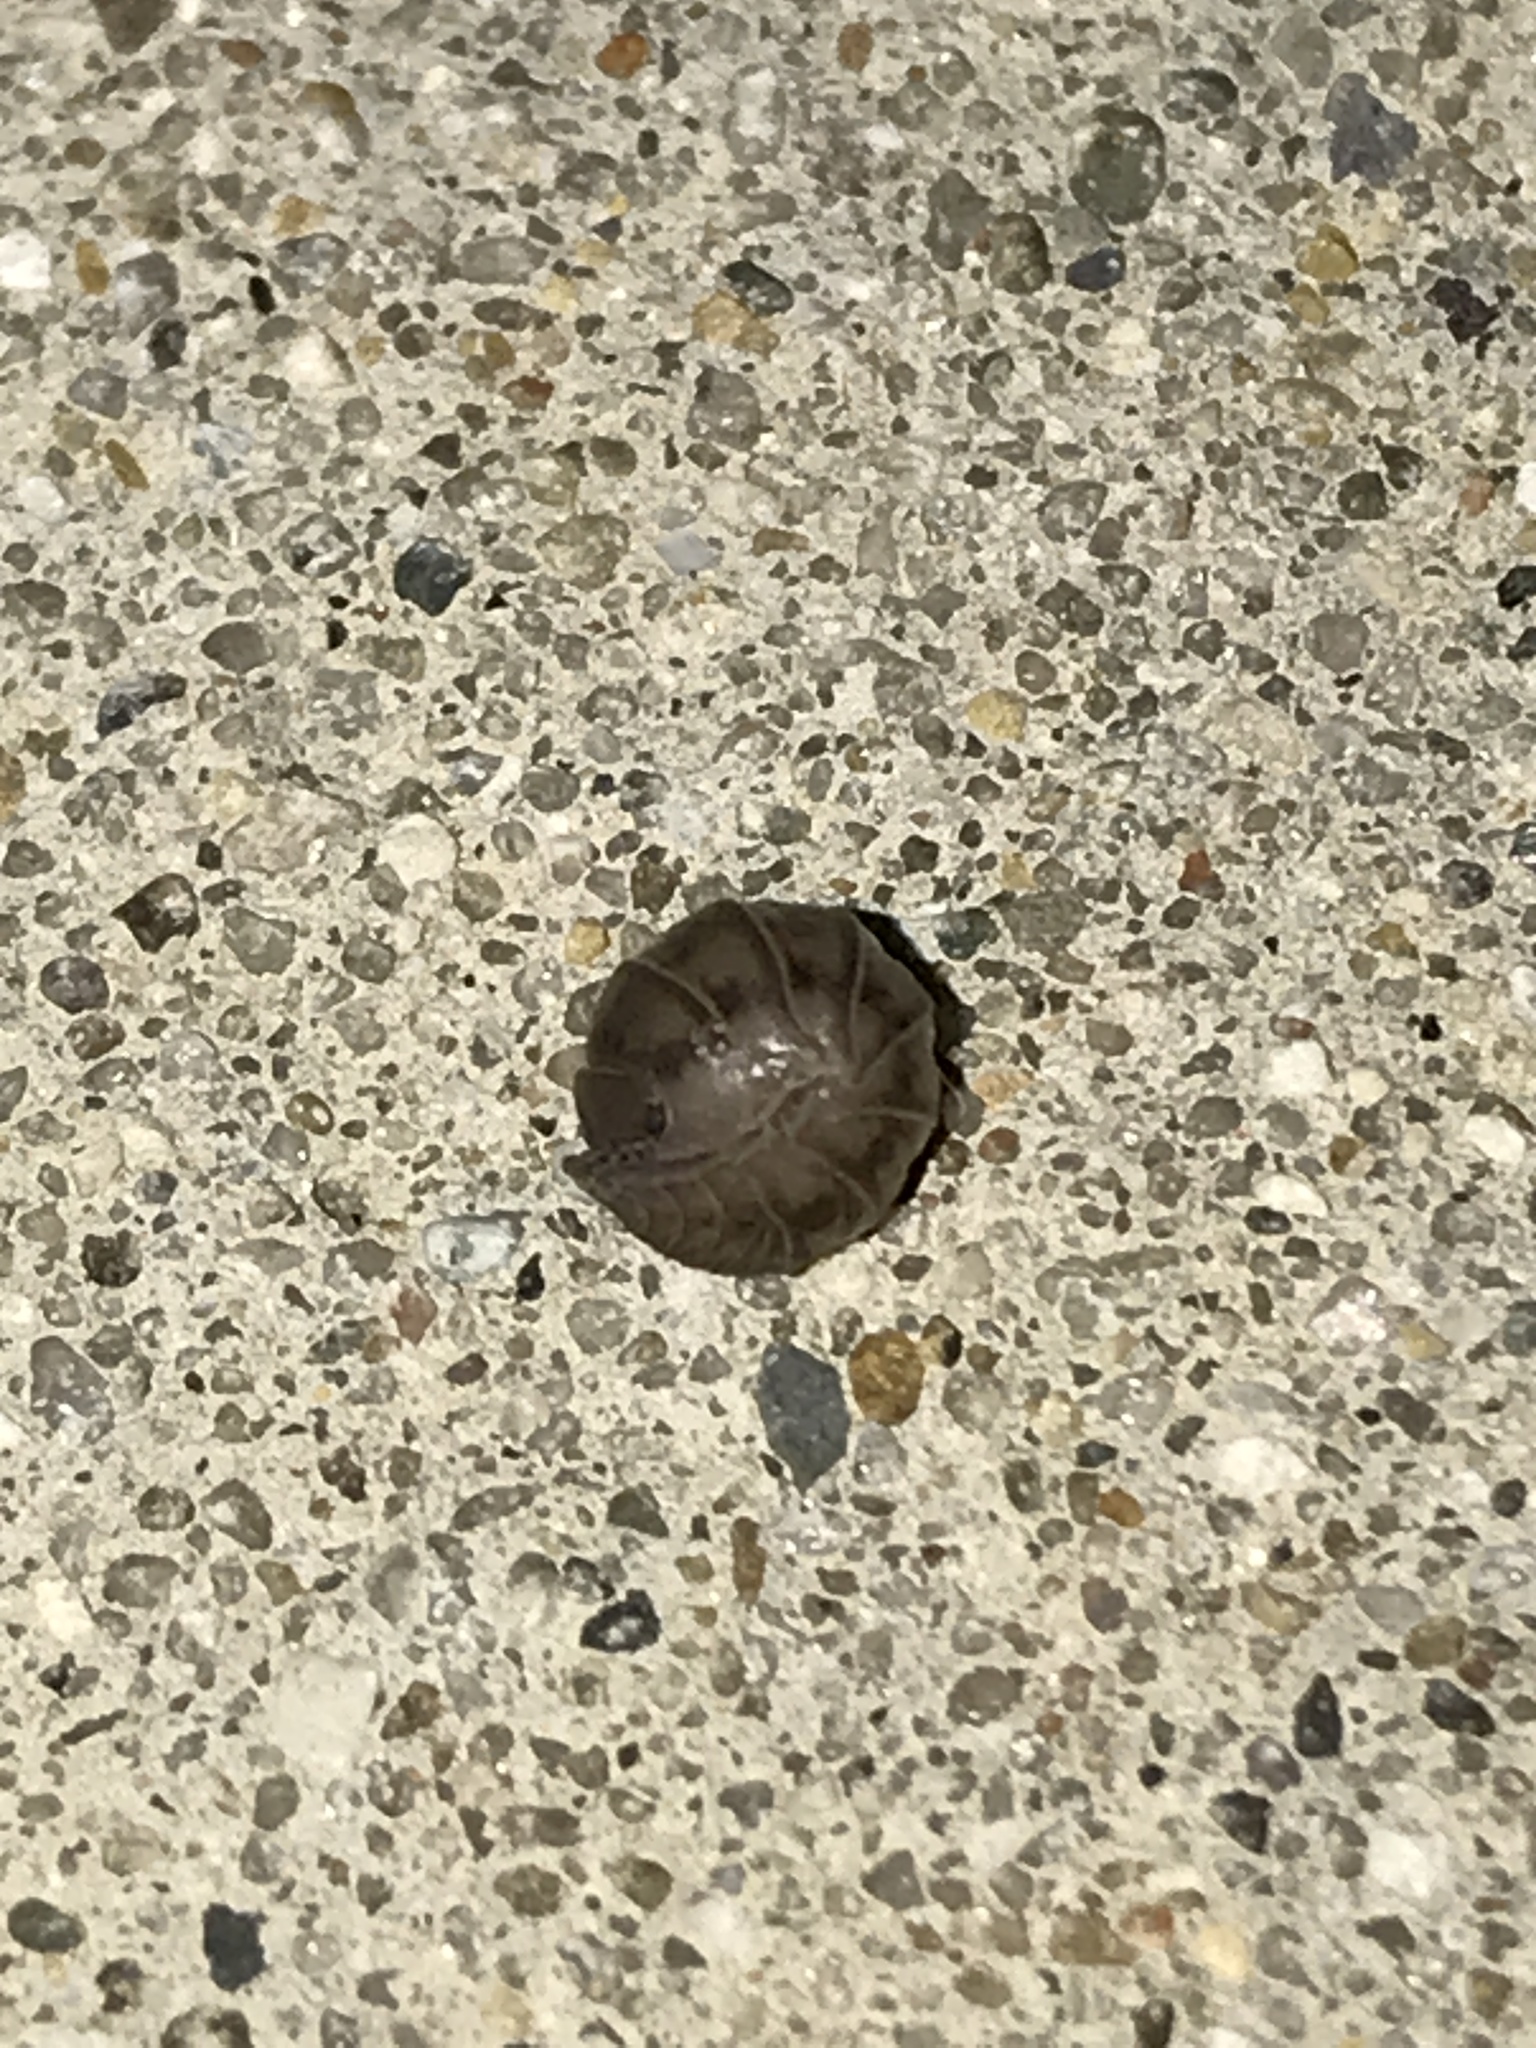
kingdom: Animalia
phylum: Arthropoda
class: Malacostraca
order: Isopoda
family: Armadillidiidae
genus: Armadillidium
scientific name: Armadillidium nasatum
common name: Isopod
